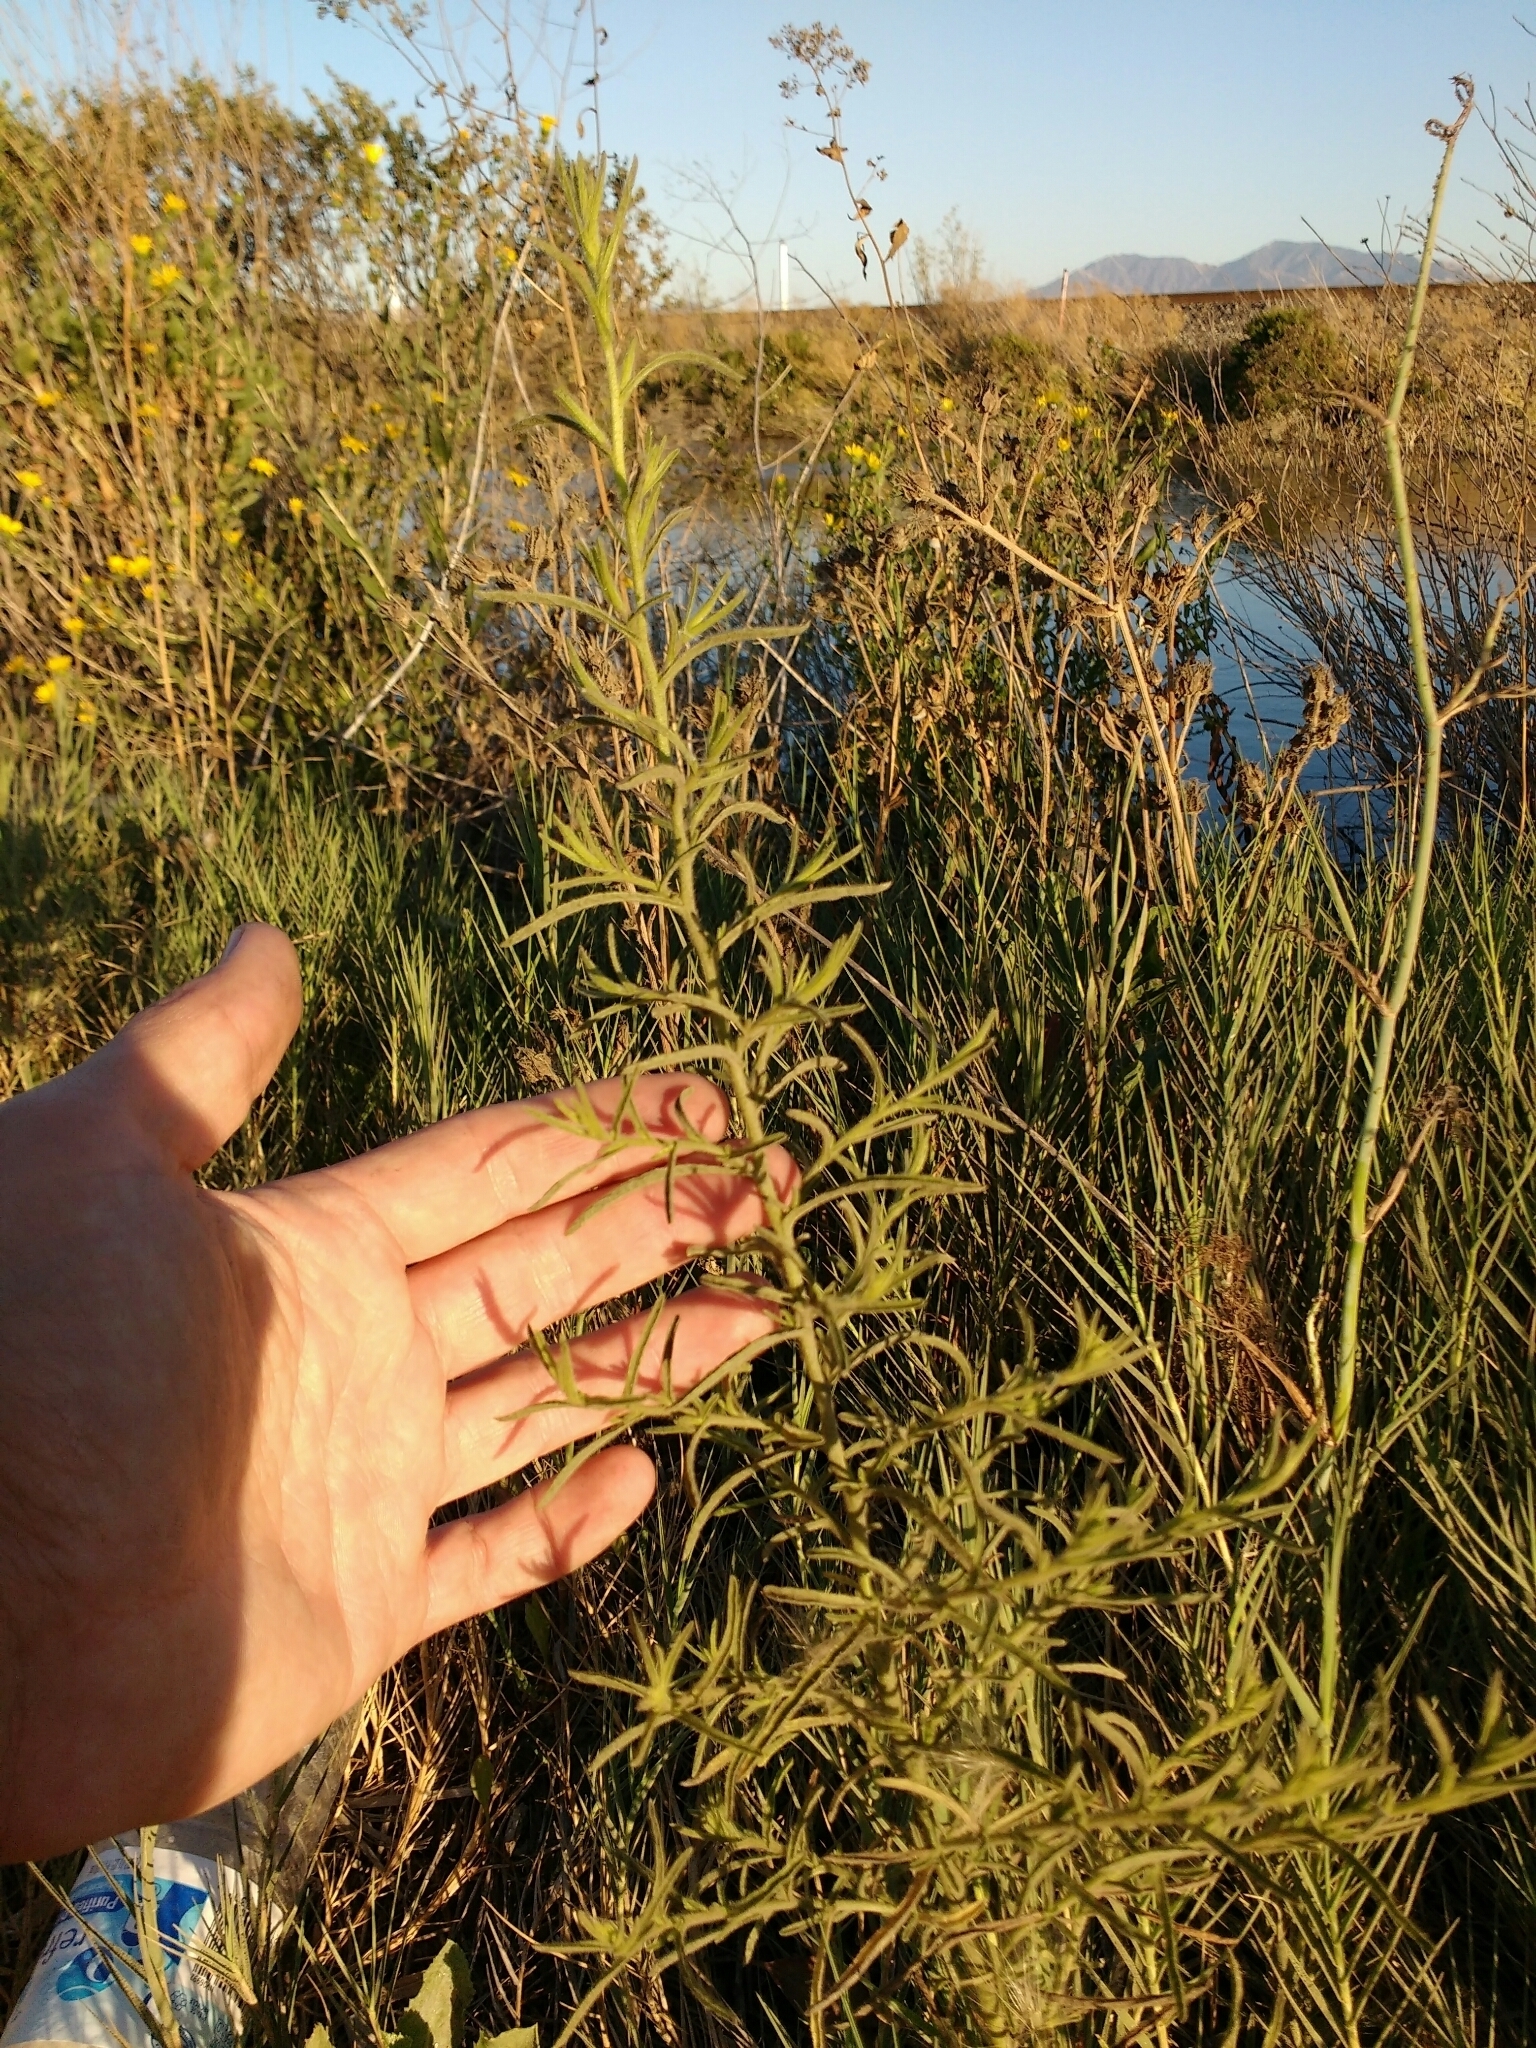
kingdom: Plantae
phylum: Tracheophyta
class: Magnoliopsida
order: Asterales
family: Asteraceae
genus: Dittrichia
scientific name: Dittrichia graveolens
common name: Stinking fleabane
